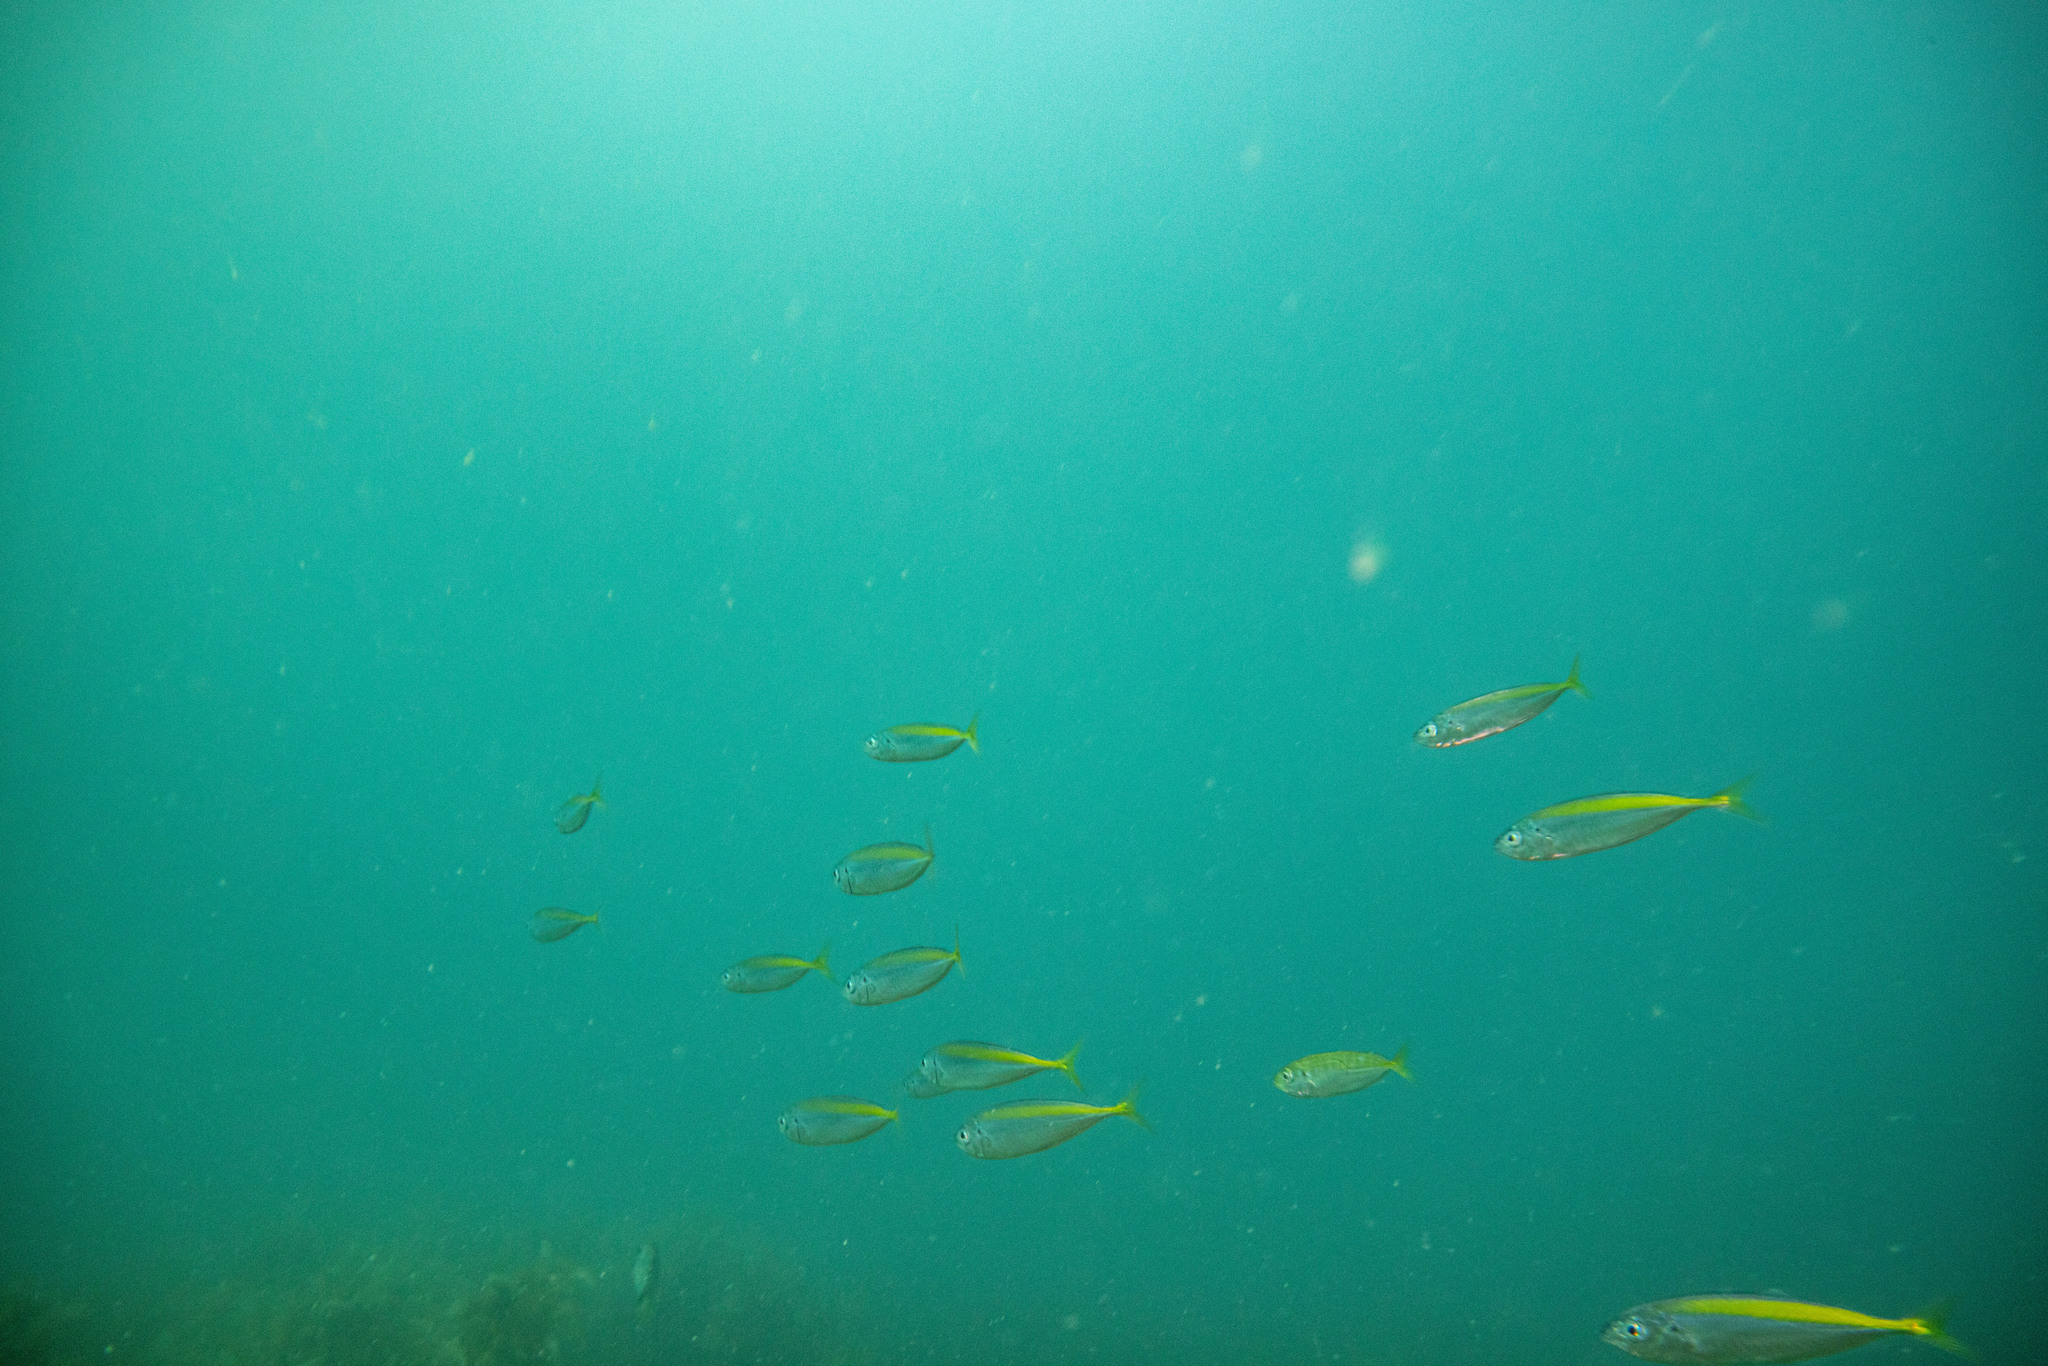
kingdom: Animalia
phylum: Chordata
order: Perciformes
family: Carangidae
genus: Decapterus
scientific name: Decapterus koheru
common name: Koheru
